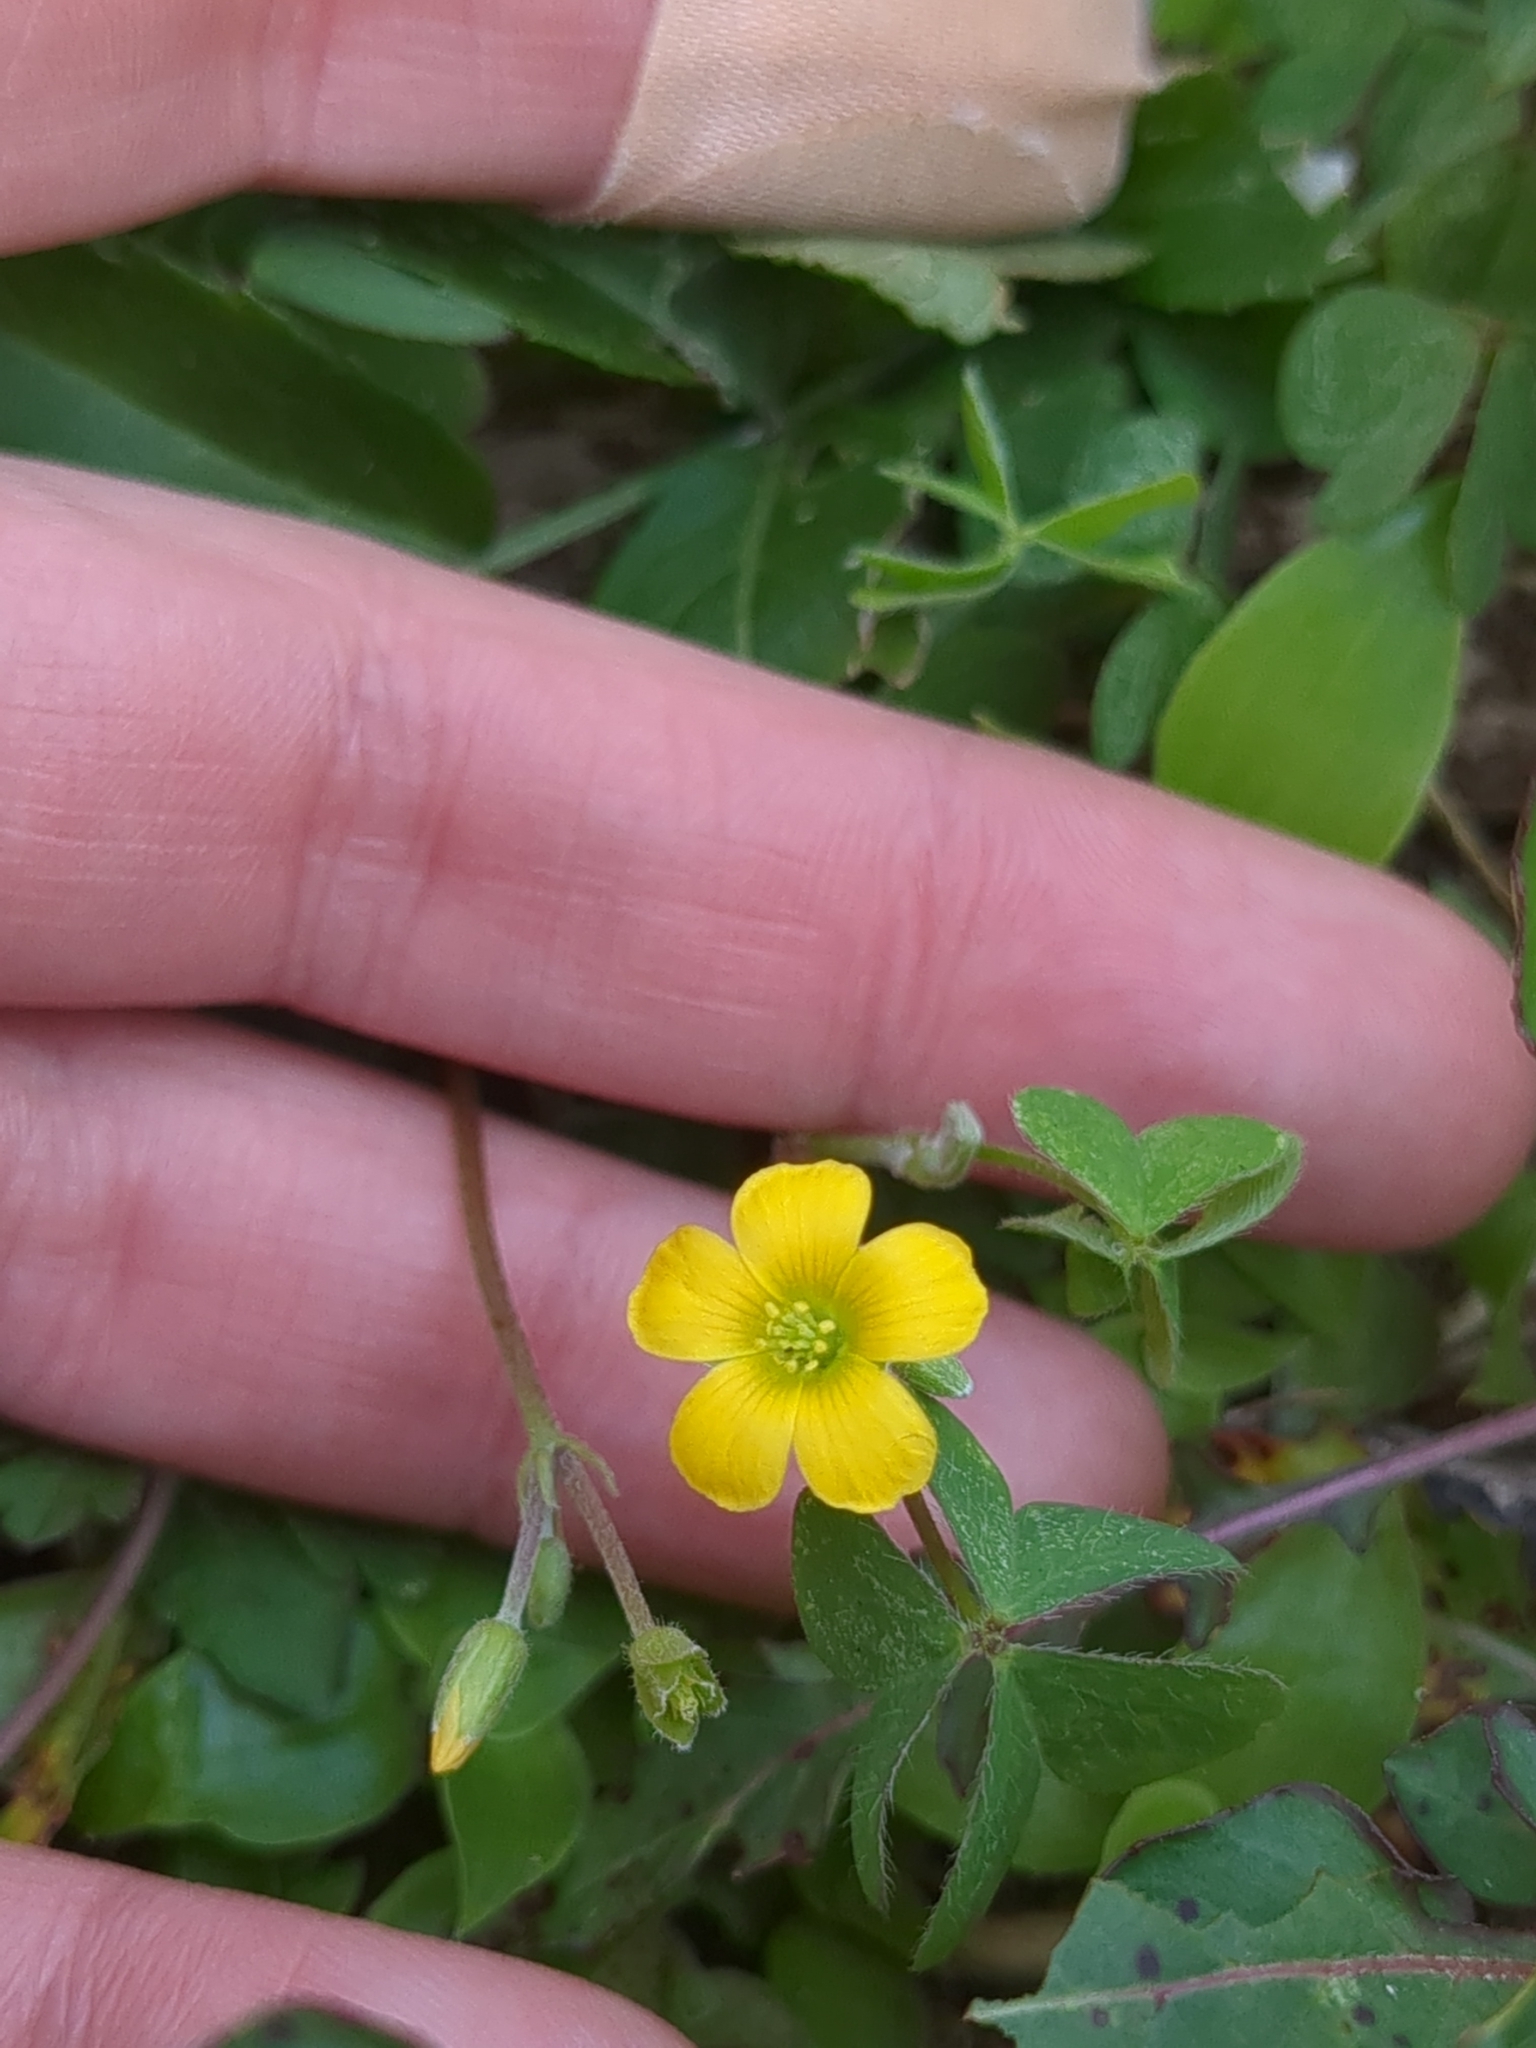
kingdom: Plantae
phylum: Tracheophyta
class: Magnoliopsida
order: Oxalidales
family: Oxalidaceae
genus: Oxalis
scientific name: Oxalis dillenii
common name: Sussex yellow-sorrel
